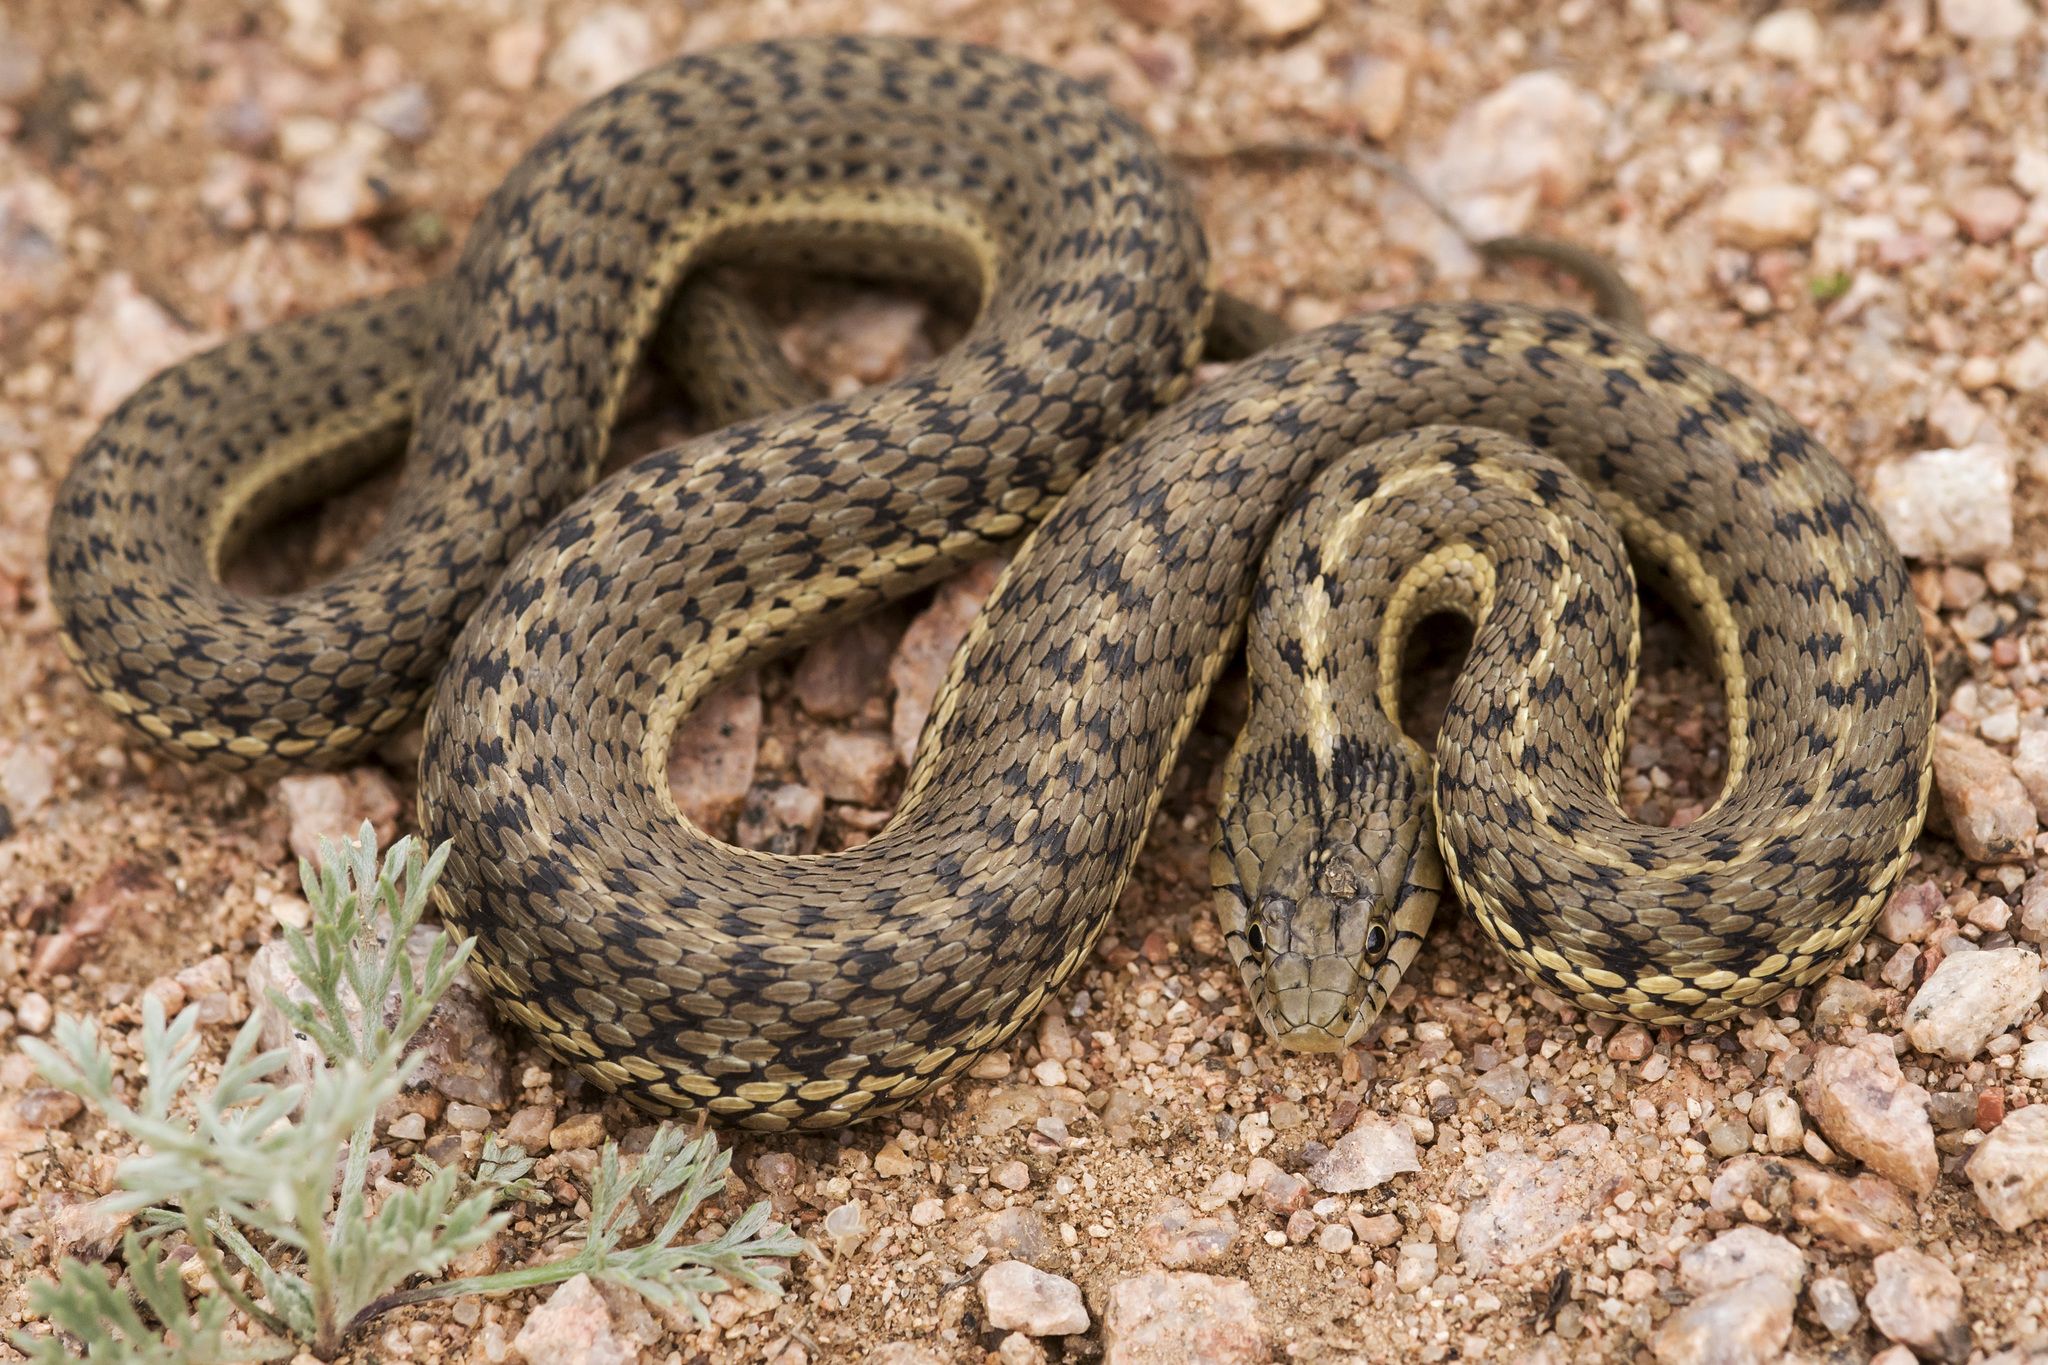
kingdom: Animalia
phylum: Chordata
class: Squamata
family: Colubridae
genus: Thamnophis
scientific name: Thamnophis elegans
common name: Western terrestrial garter snake
